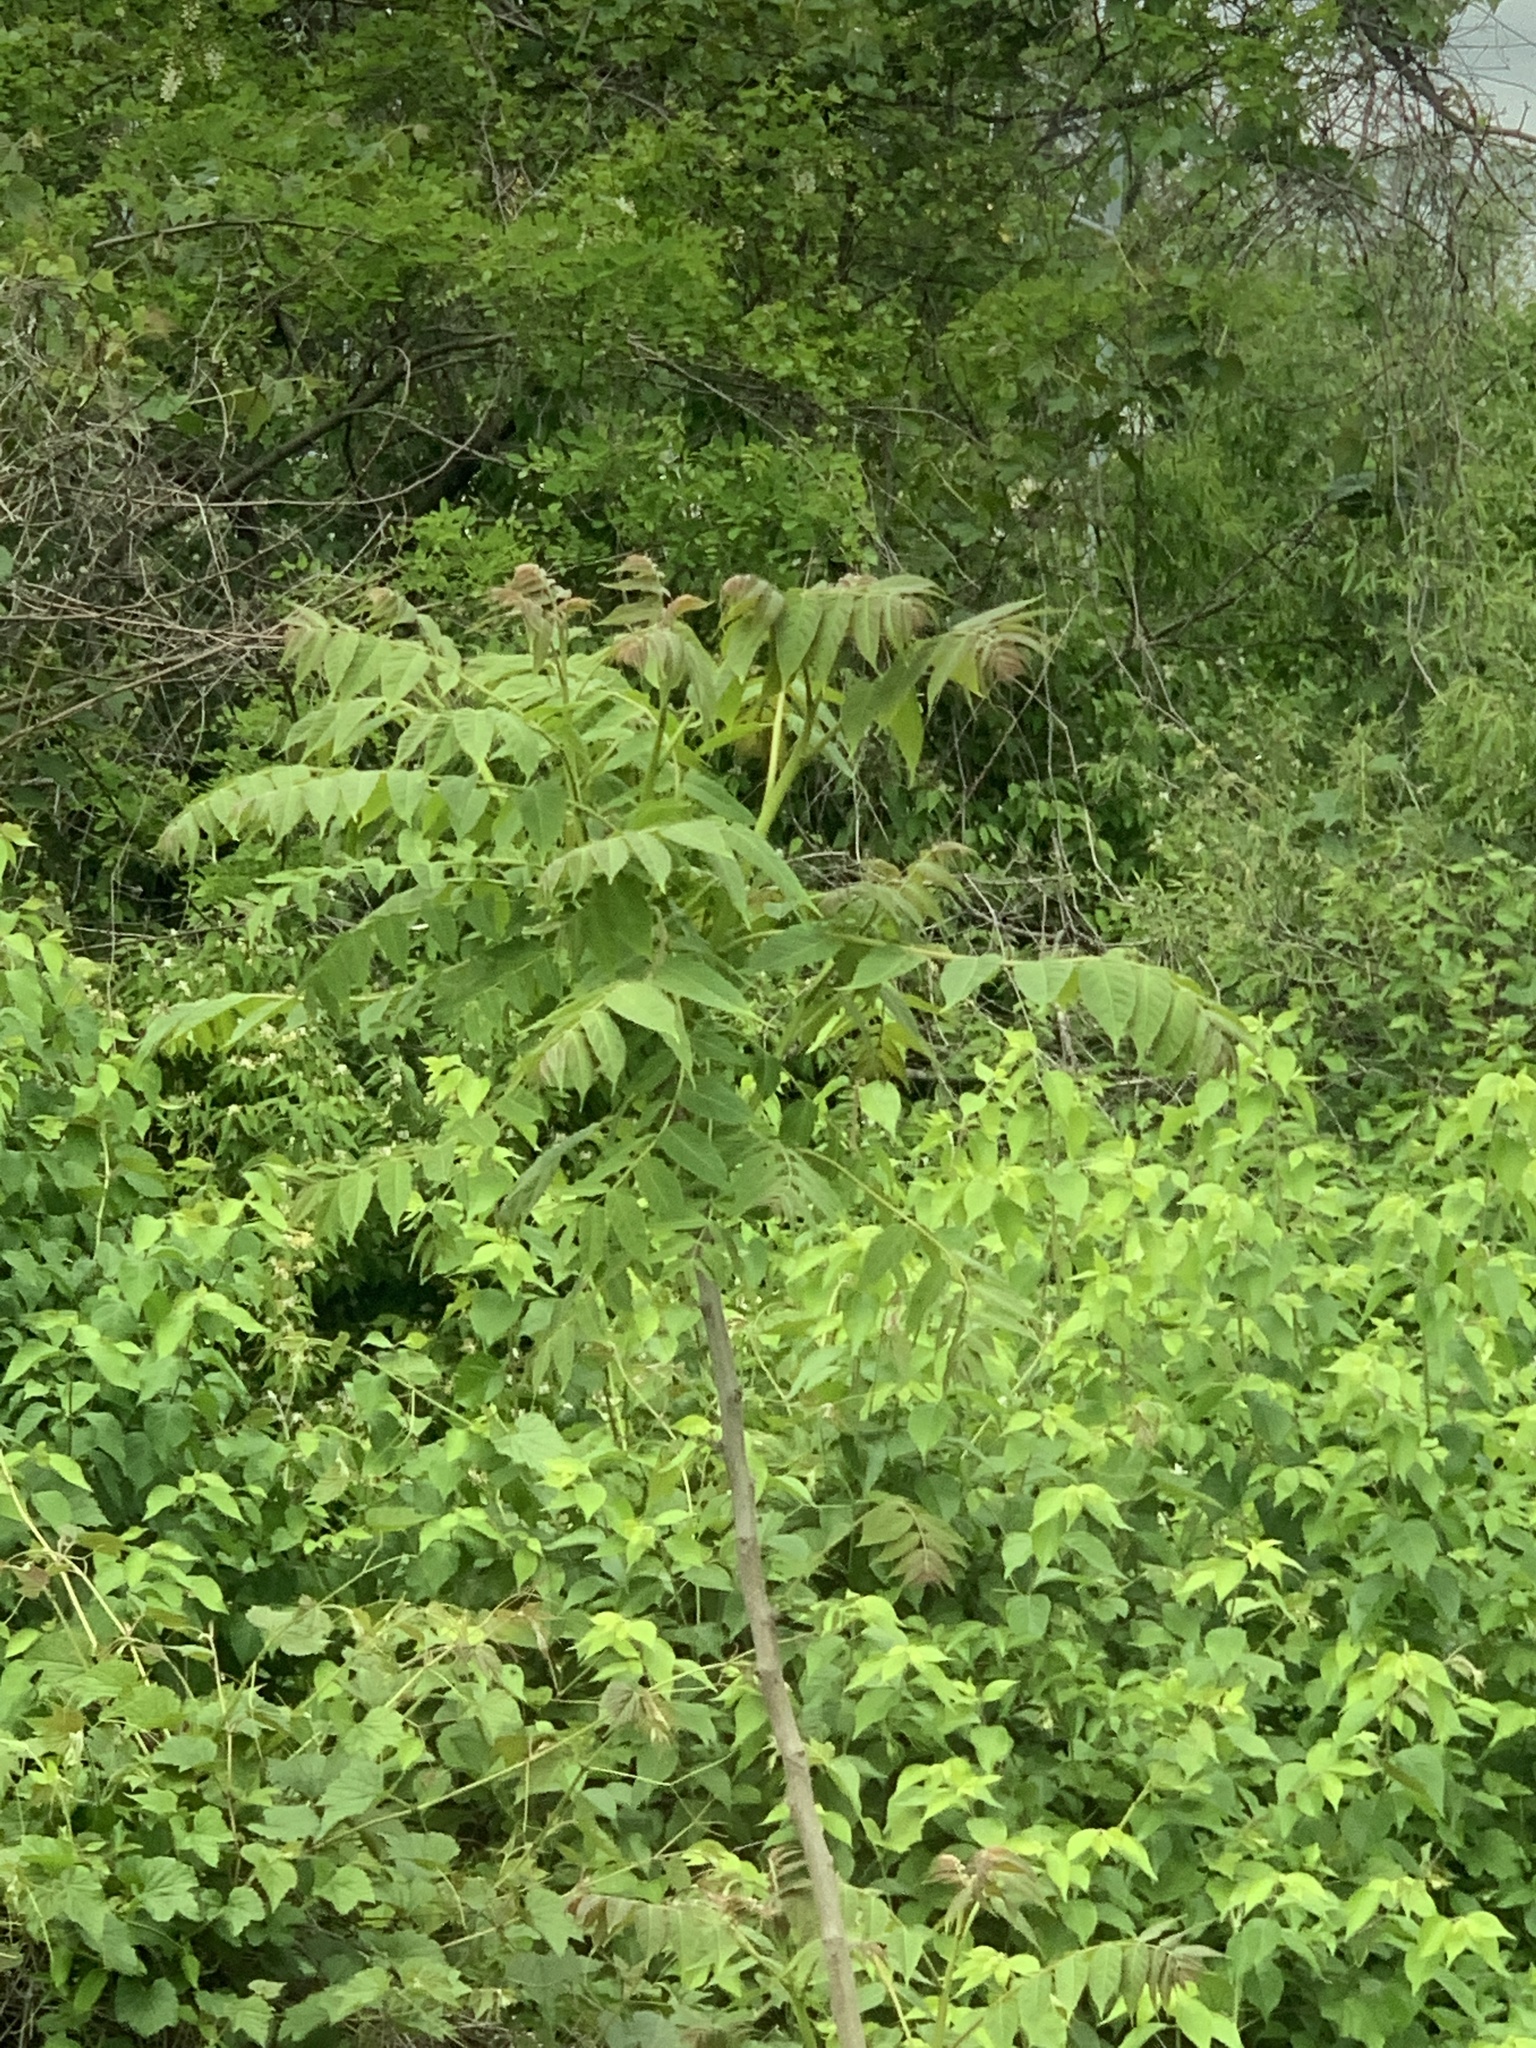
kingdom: Plantae
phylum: Tracheophyta
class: Magnoliopsida
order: Sapindales
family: Simaroubaceae
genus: Ailanthus
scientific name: Ailanthus altissima
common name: Tree-of-heaven
